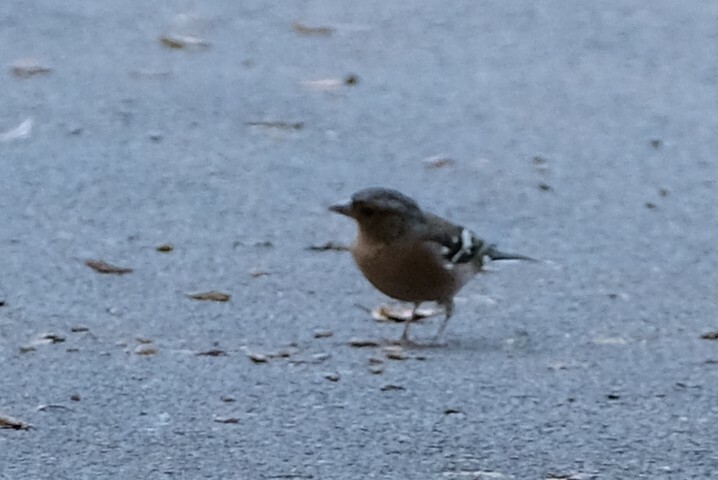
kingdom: Animalia
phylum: Chordata
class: Aves
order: Passeriformes
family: Fringillidae
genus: Fringilla
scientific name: Fringilla coelebs
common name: Common chaffinch
